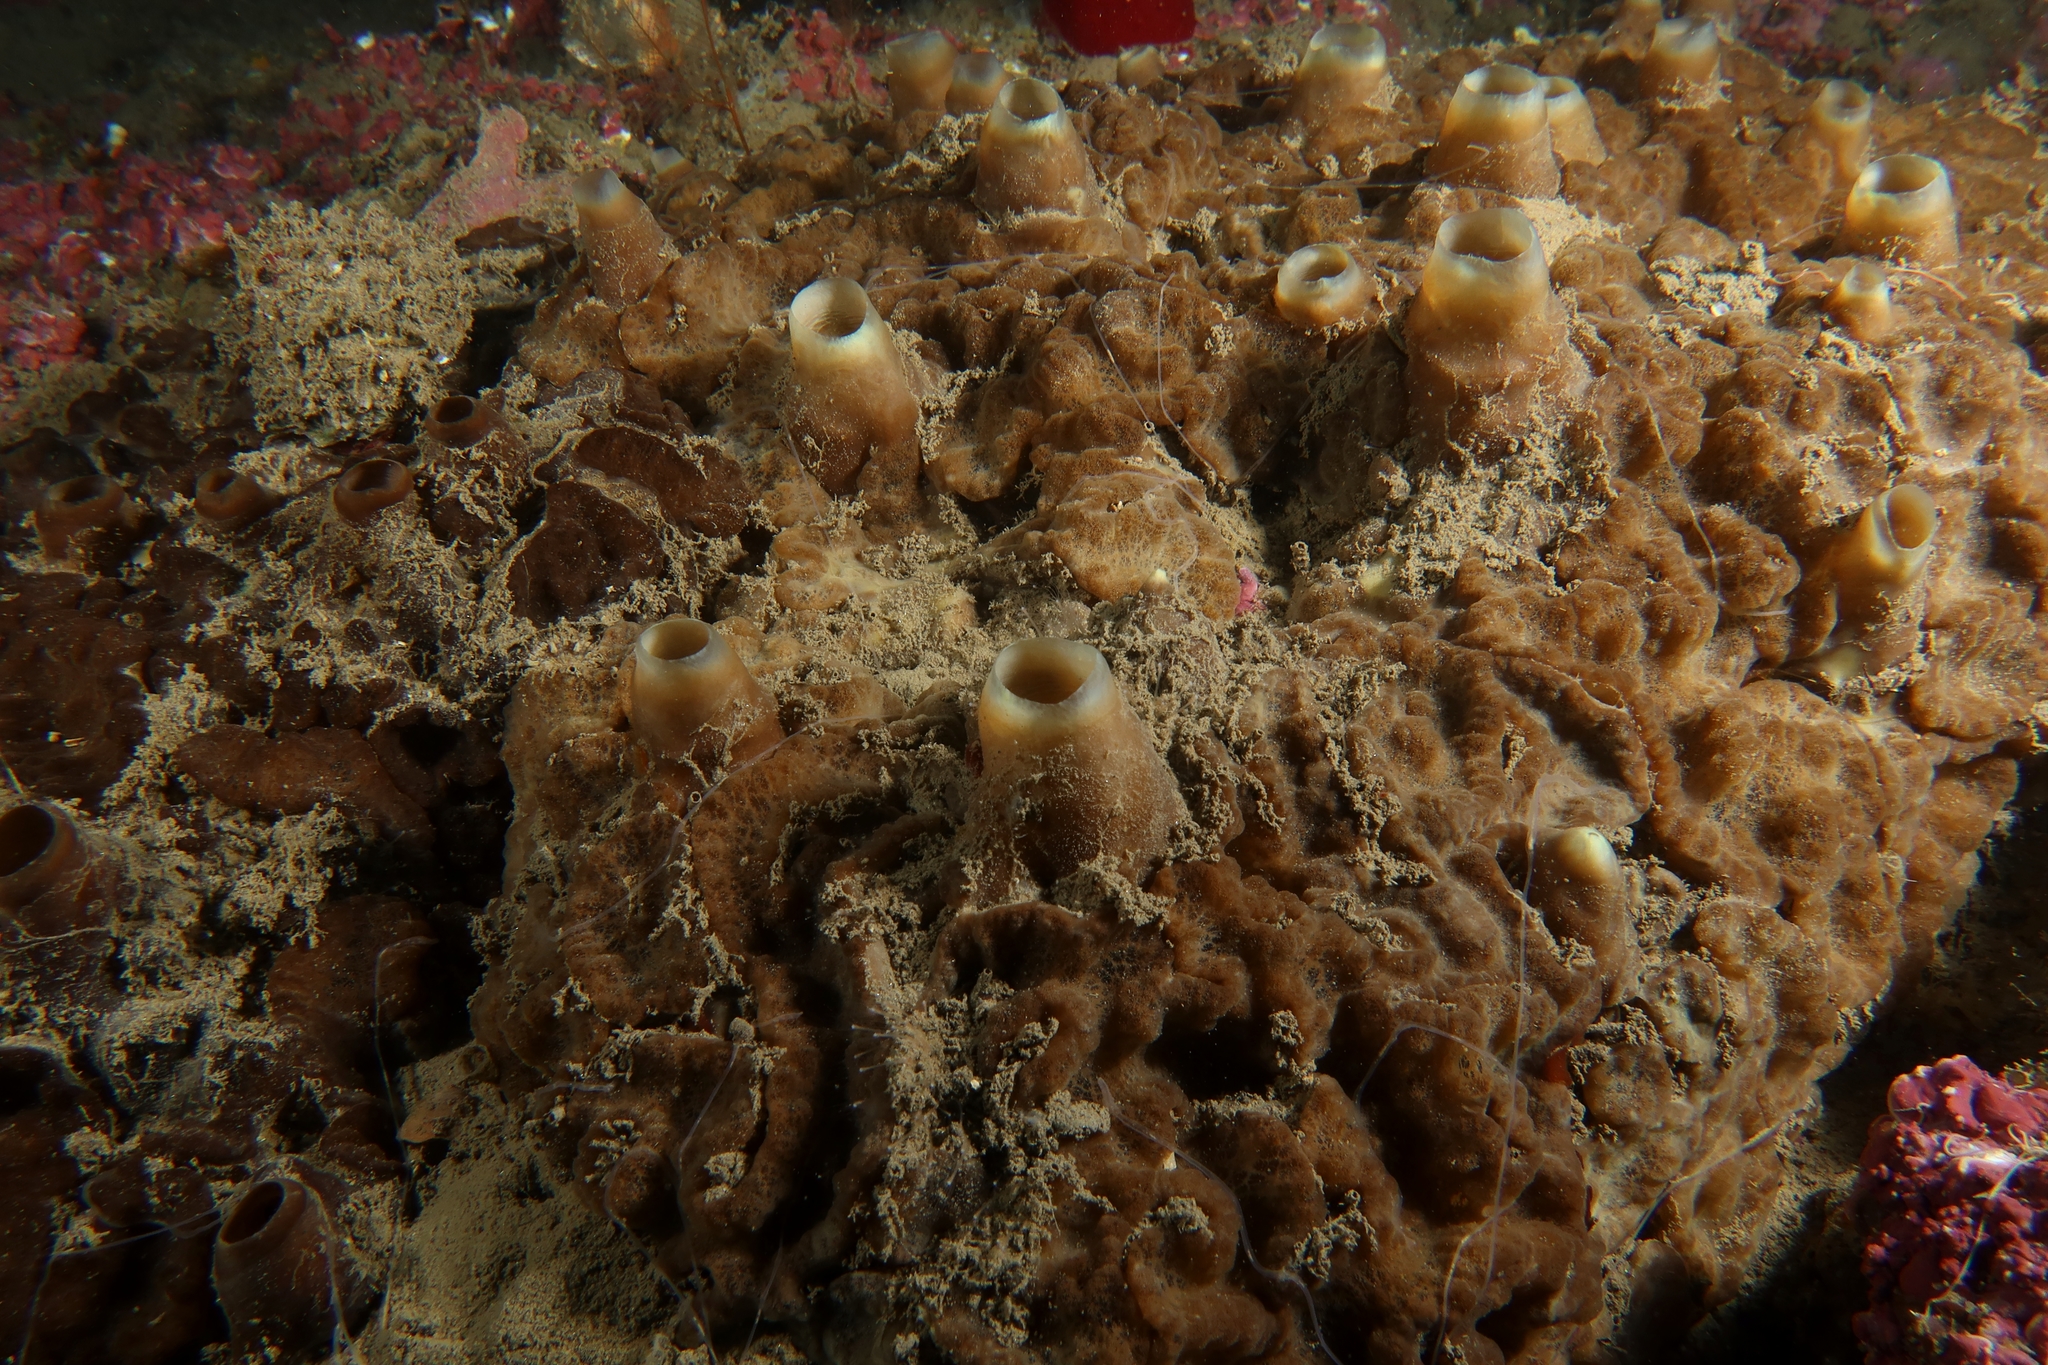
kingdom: Animalia
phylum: Porifera
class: Demospongiae
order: Clionaida
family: Clionaidae
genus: Cliona
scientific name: Cliona viridis
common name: Green boring sponge
